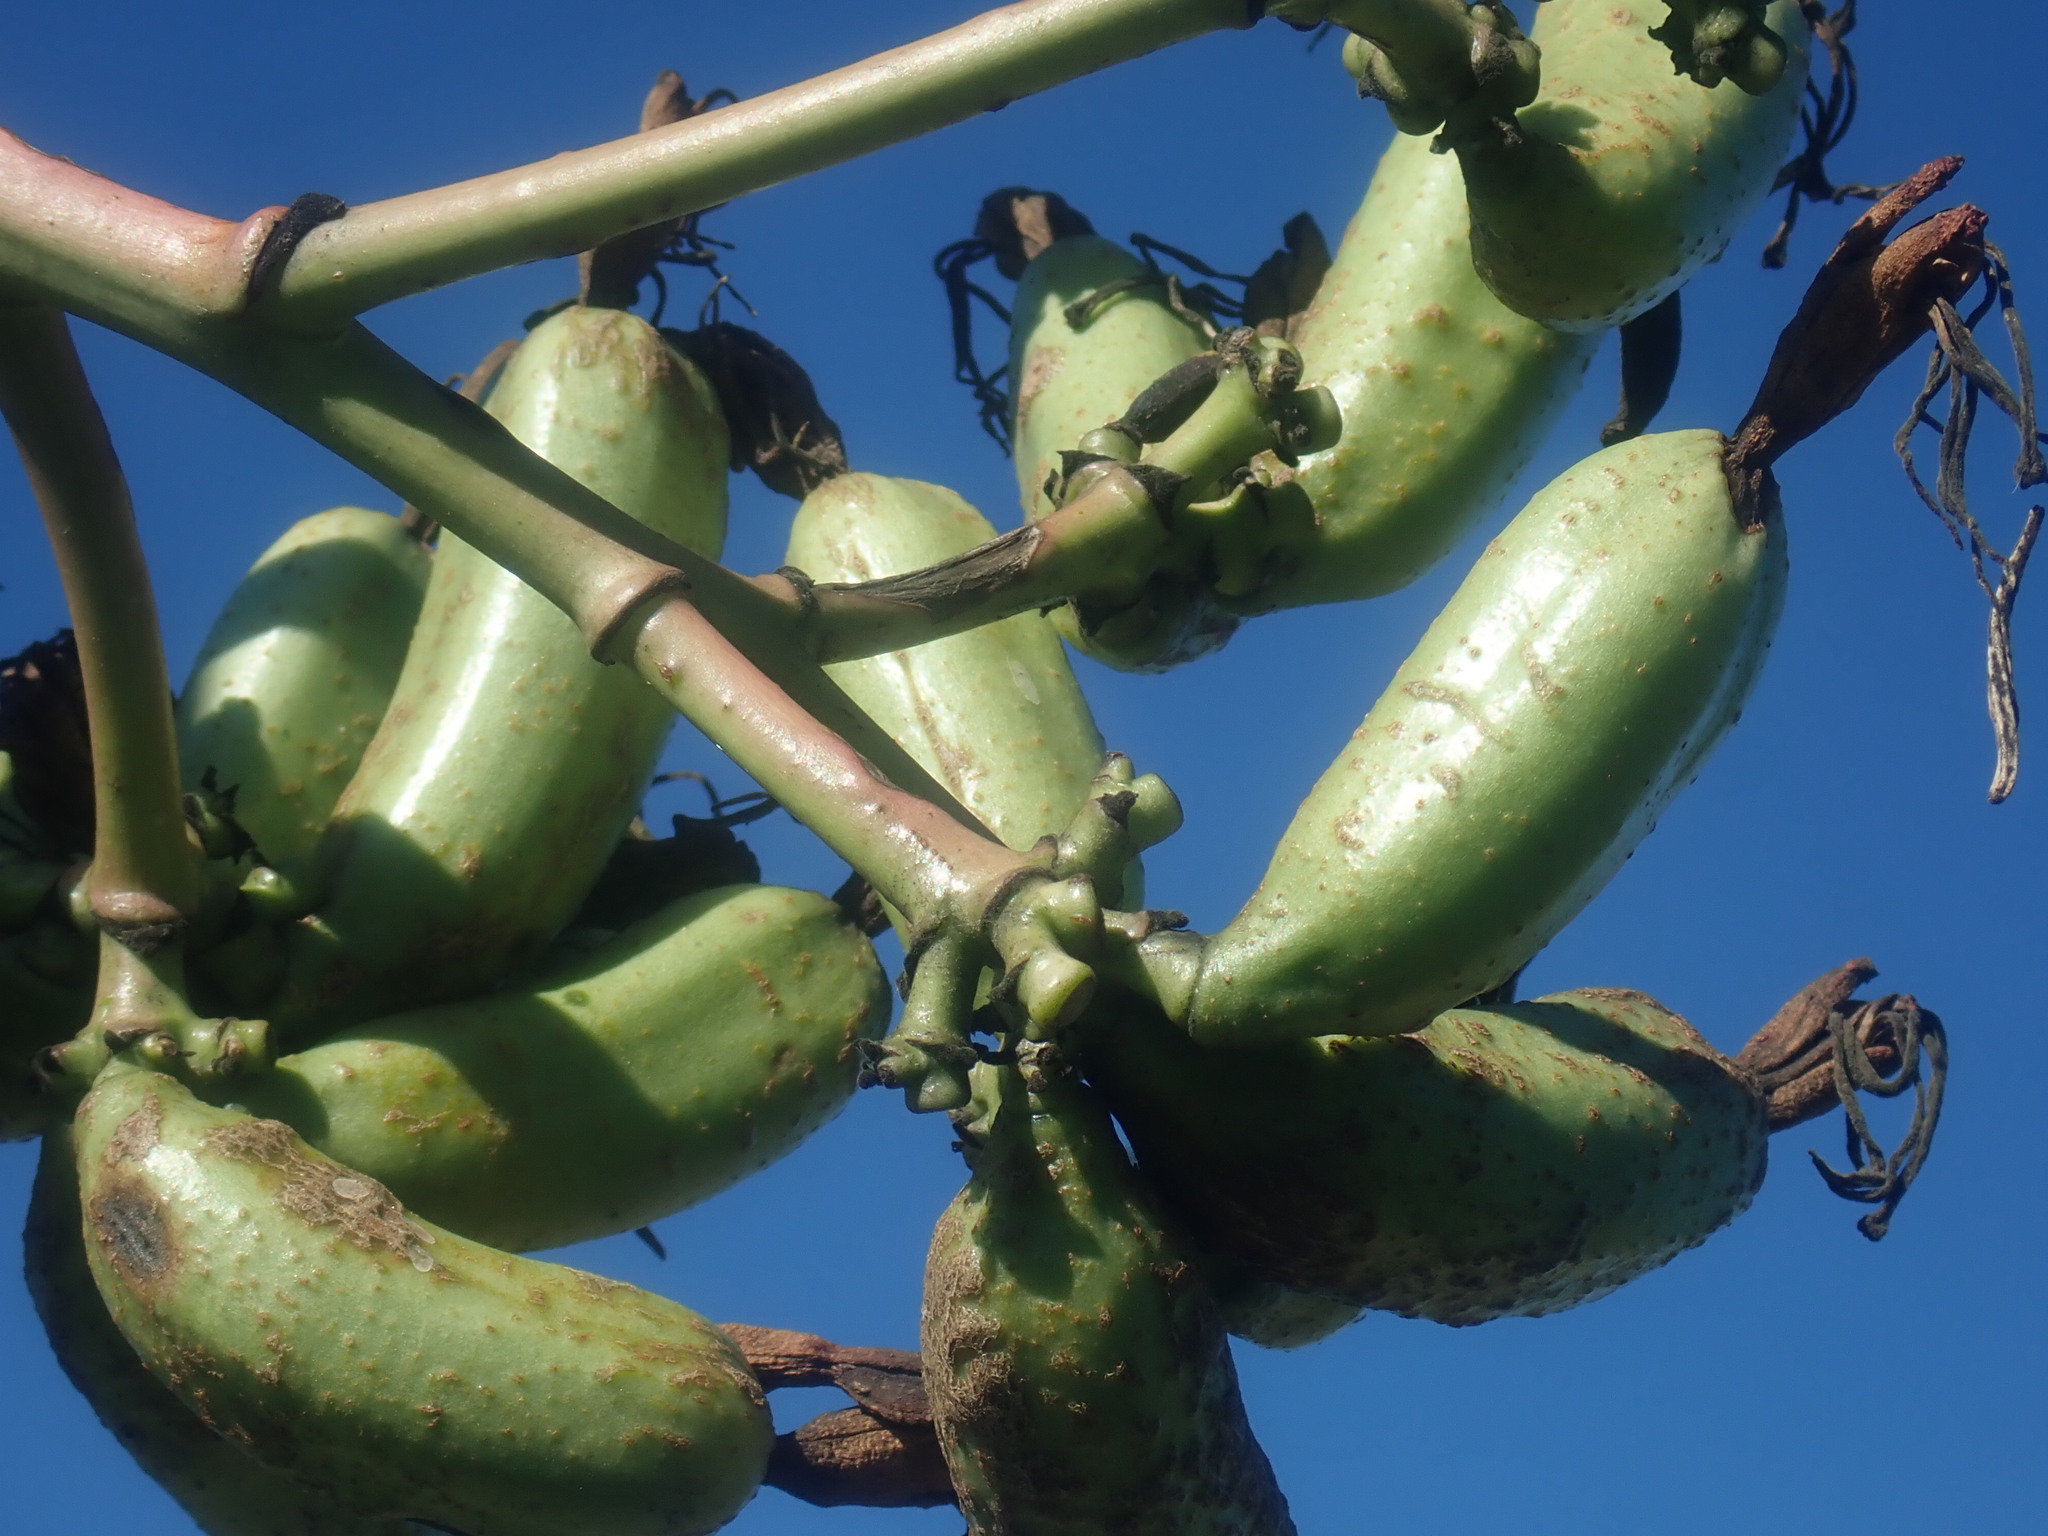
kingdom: Plantae
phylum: Tracheophyta
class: Liliopsida
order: Asparagales
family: Asparagaceae
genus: Agave
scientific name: Agave palmeri
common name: Palmer agave
